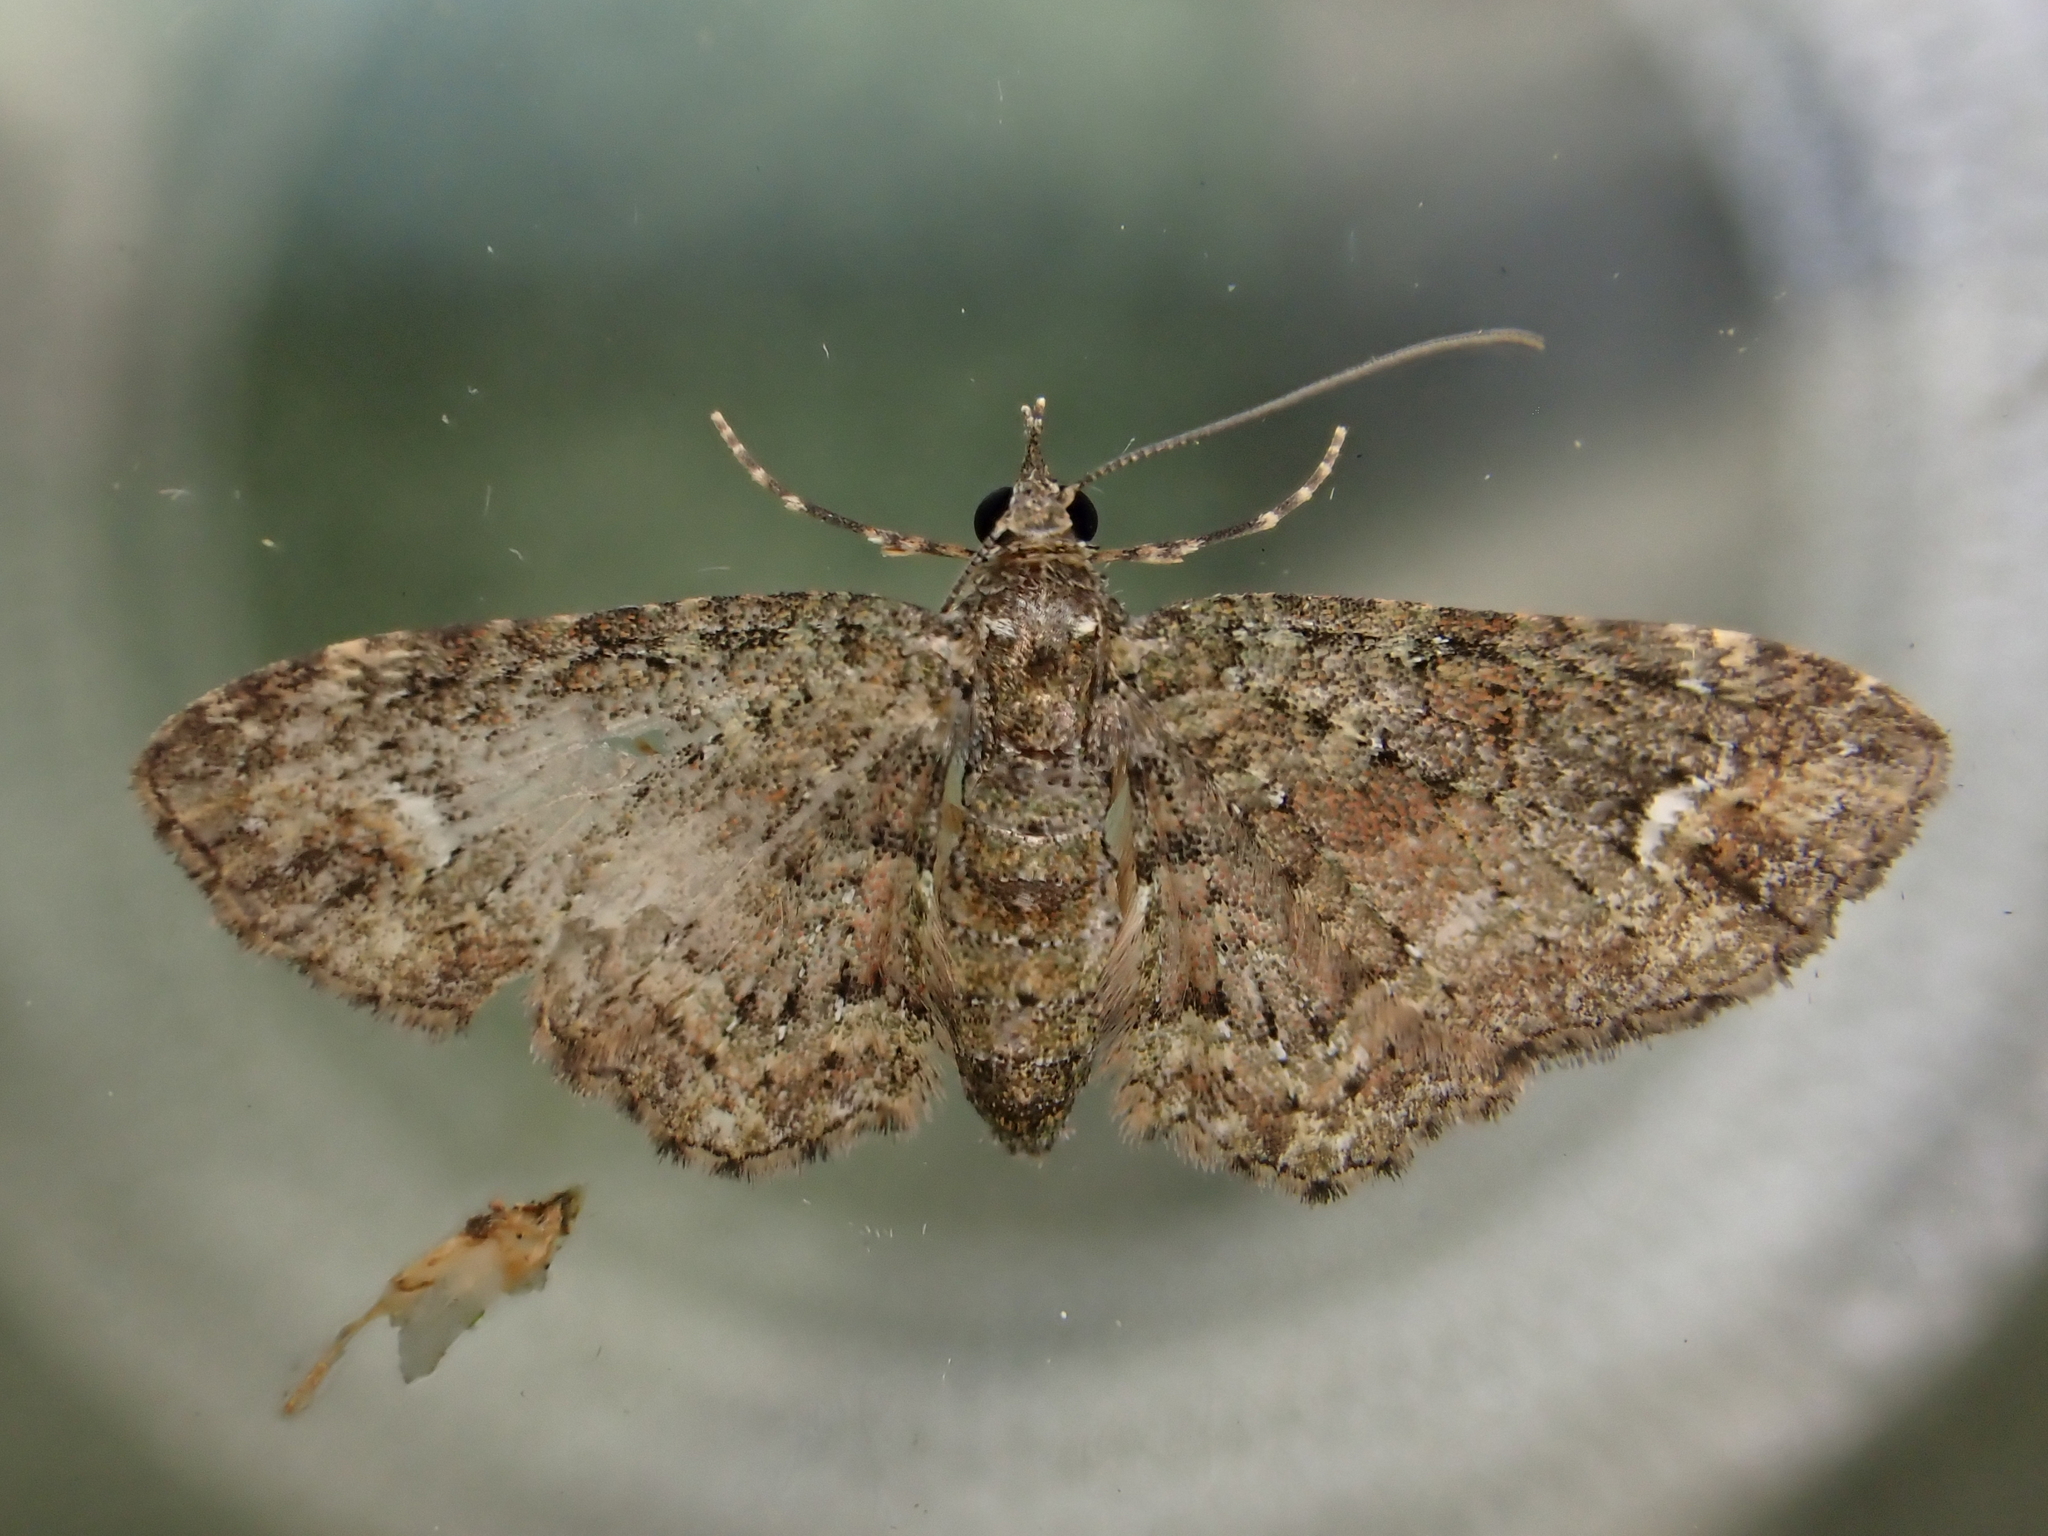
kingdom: Animalia
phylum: Arthropoda
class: Insecta
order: Lepidoptera
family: Geometridae
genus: Pasiphilodes
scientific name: Pasiphilodes testulata
